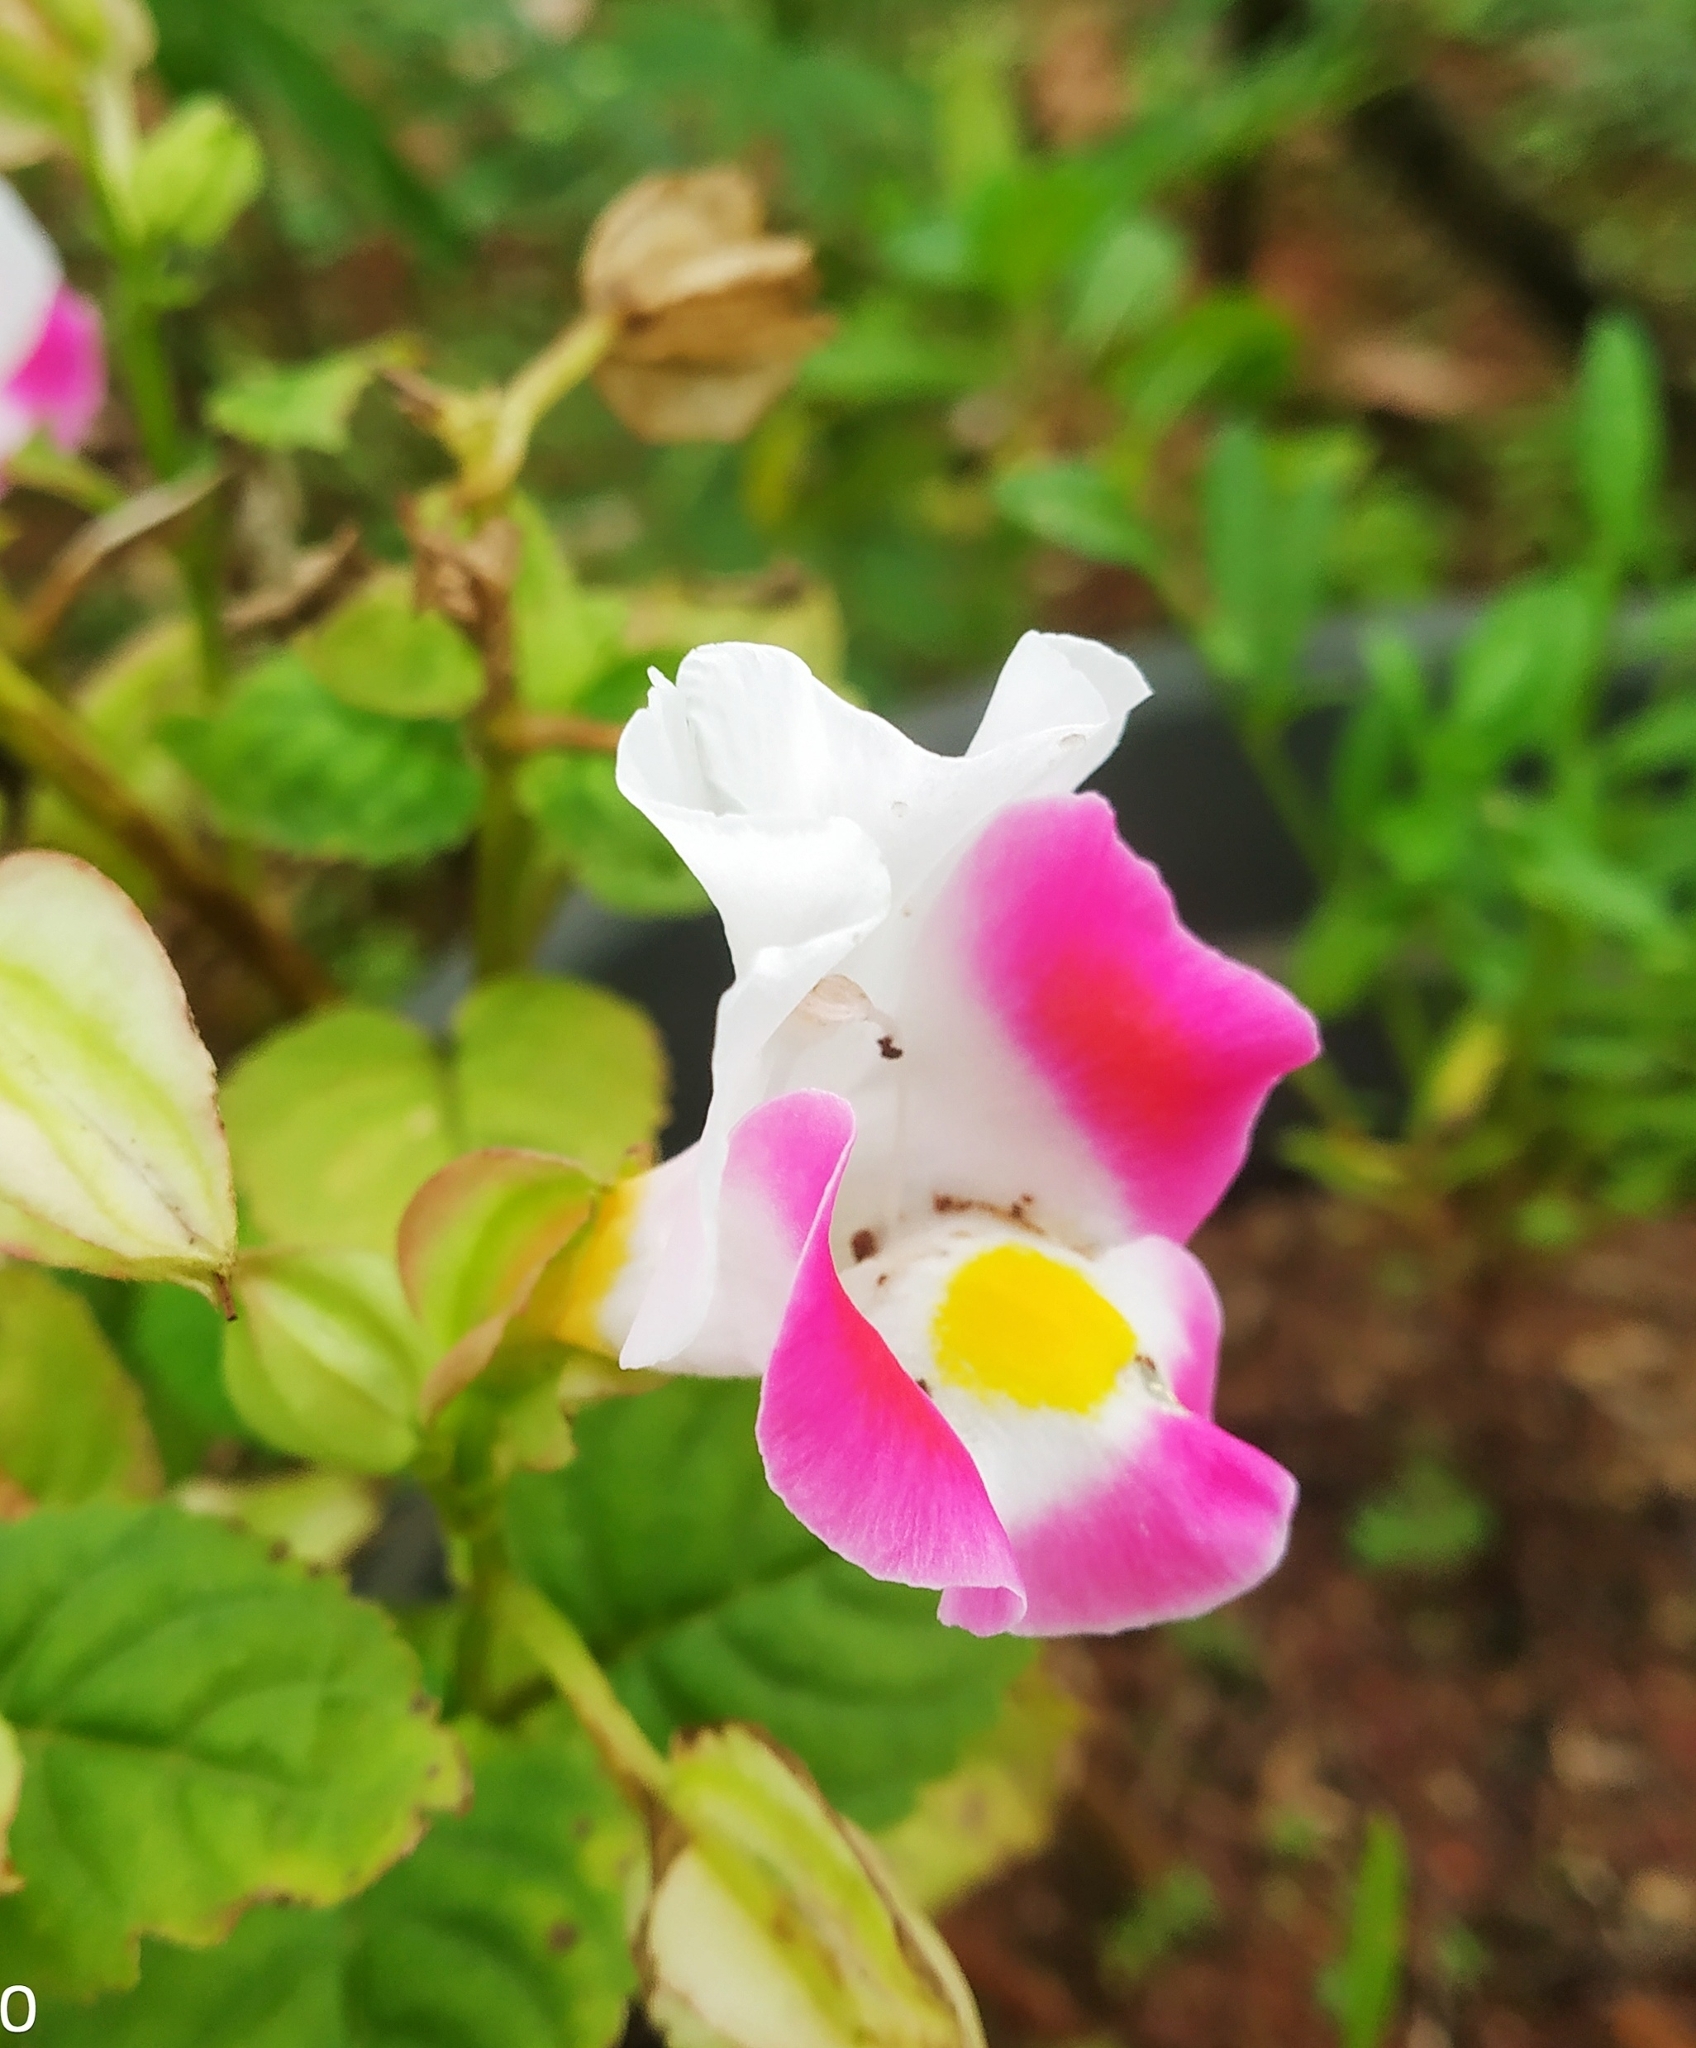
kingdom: Plantae
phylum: Tracheophyta
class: Magnoliopsida
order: Lamiales
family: Linderniaceae
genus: Torenia
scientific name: Torenia fournieri
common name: Bluewings
